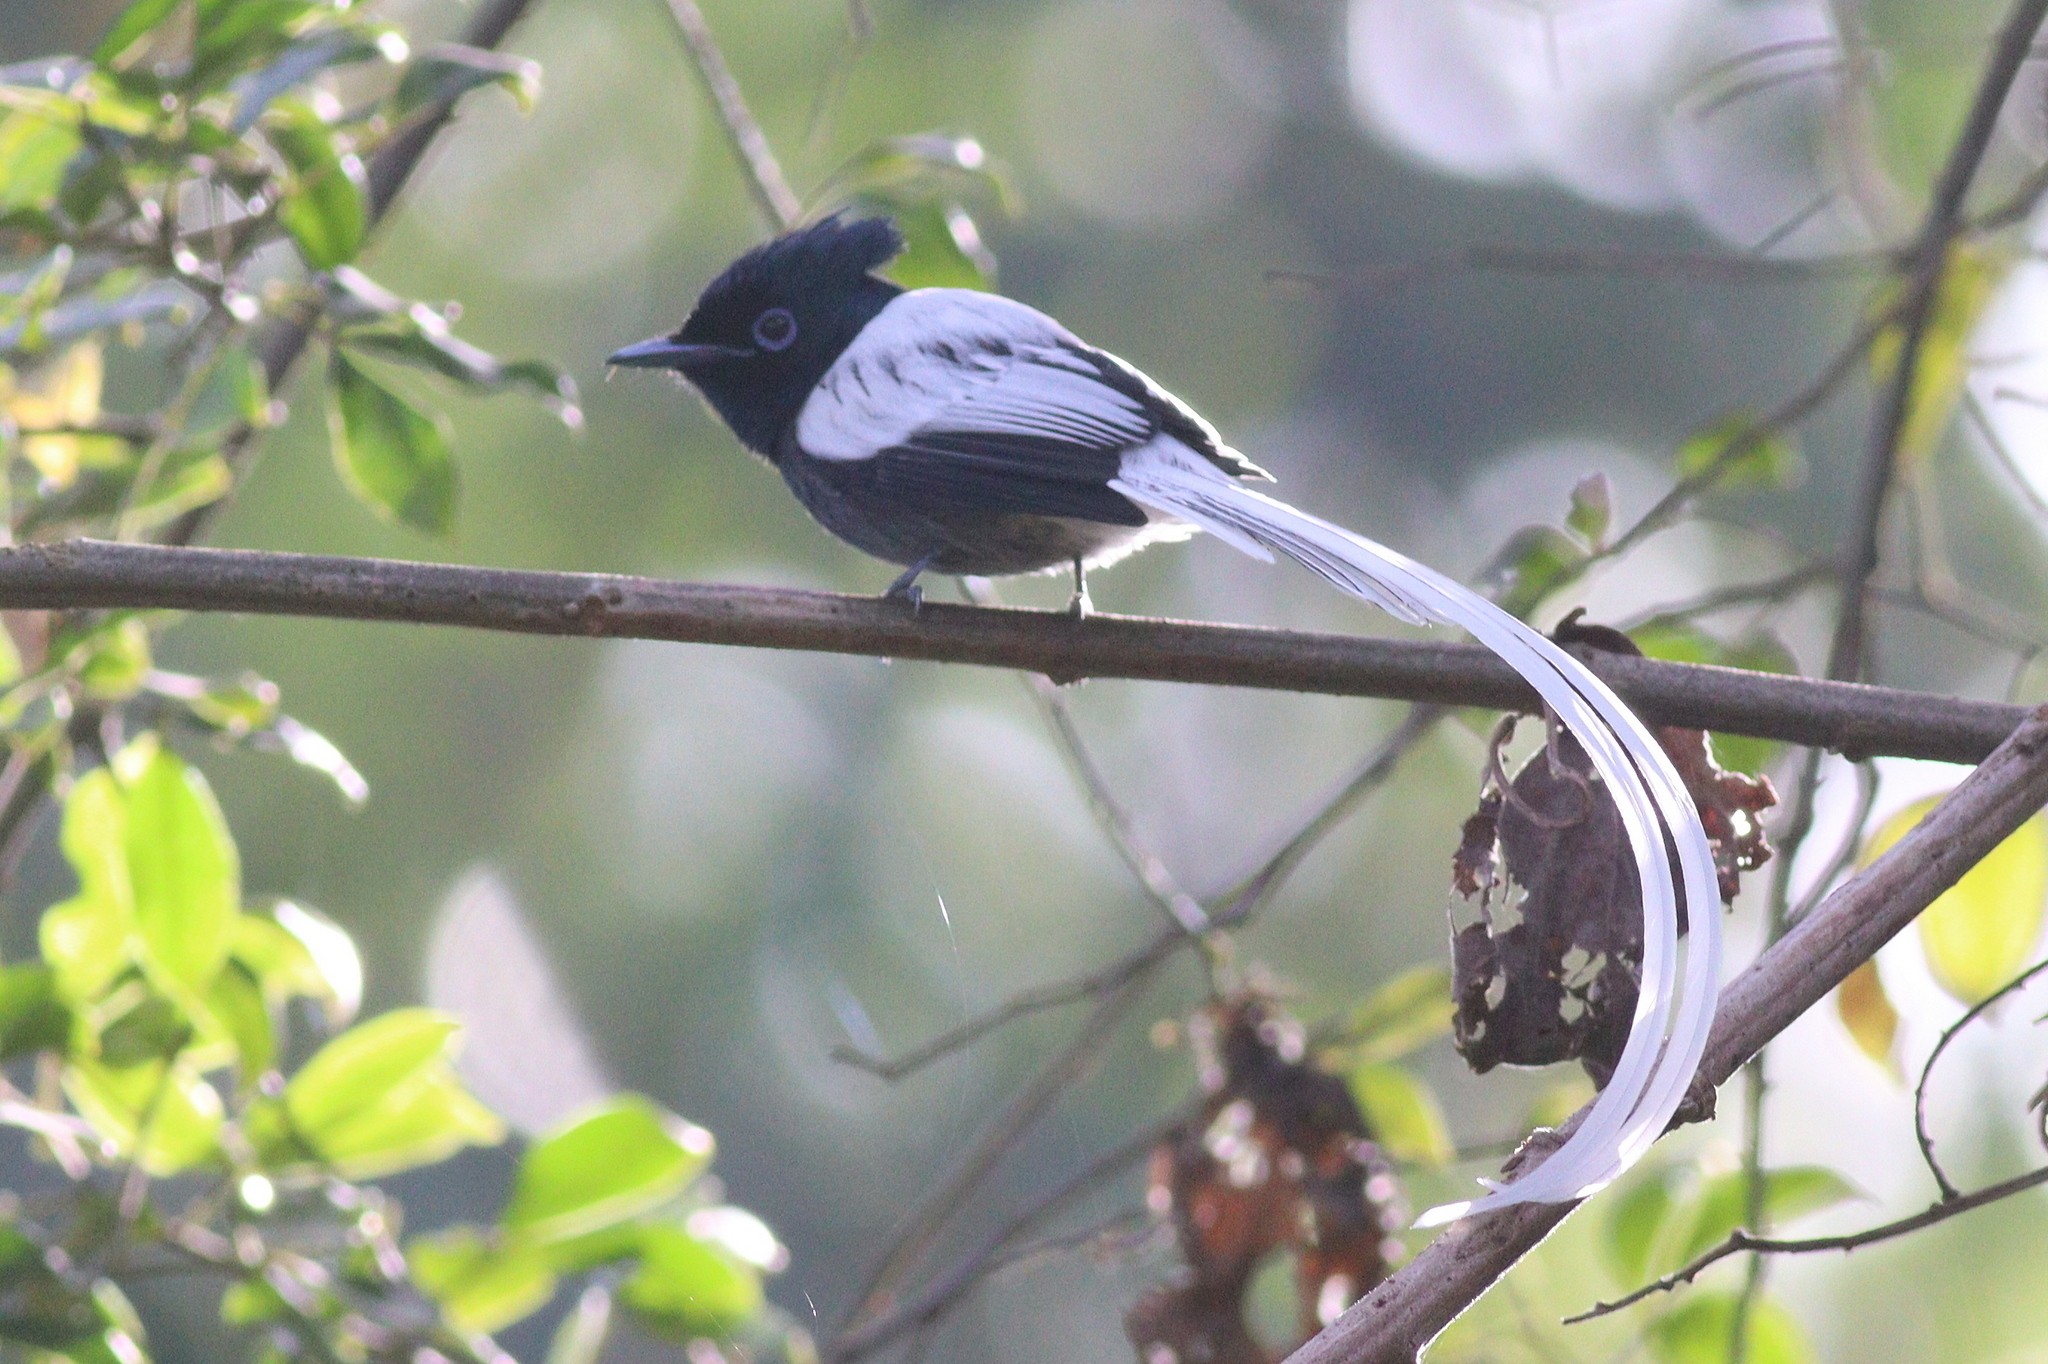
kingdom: Animalia
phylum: Chordata
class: Aves
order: Passeriformes
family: Monarchidae
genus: Terpsiphone
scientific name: Terpsiphone viridis
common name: African paradise flycatcher
